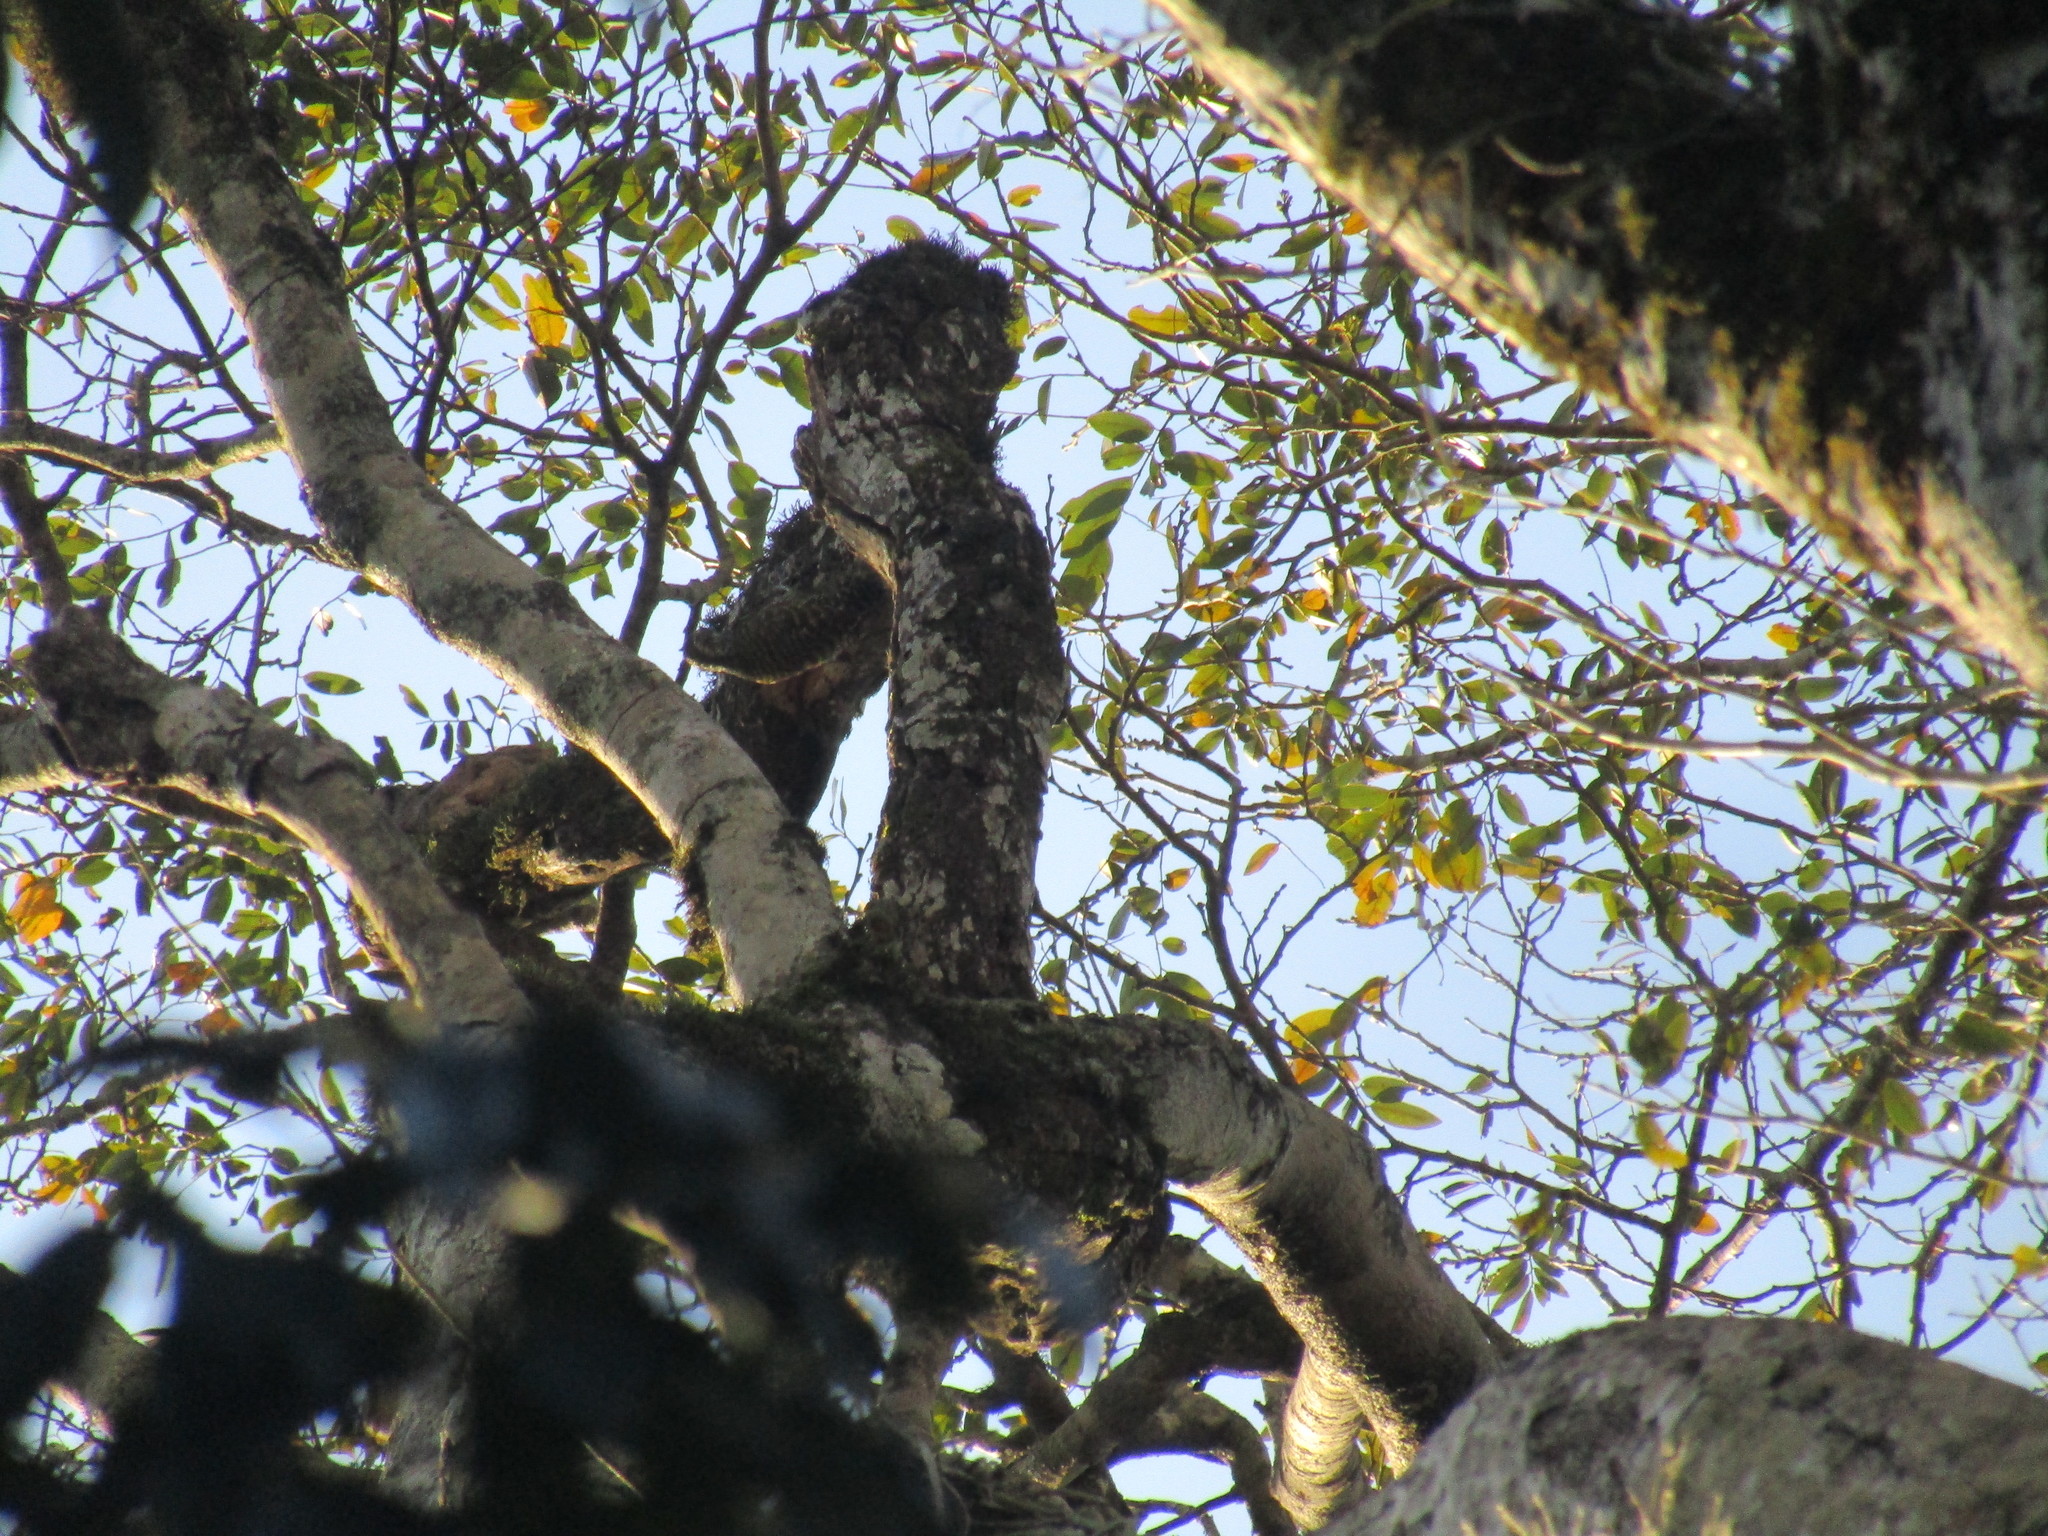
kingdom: Animalia
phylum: Chordata
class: Aves
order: Piciformes
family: Picidae
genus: Veniliornis
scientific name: Veniliornis spilogaster
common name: White-spotted woodpecker
